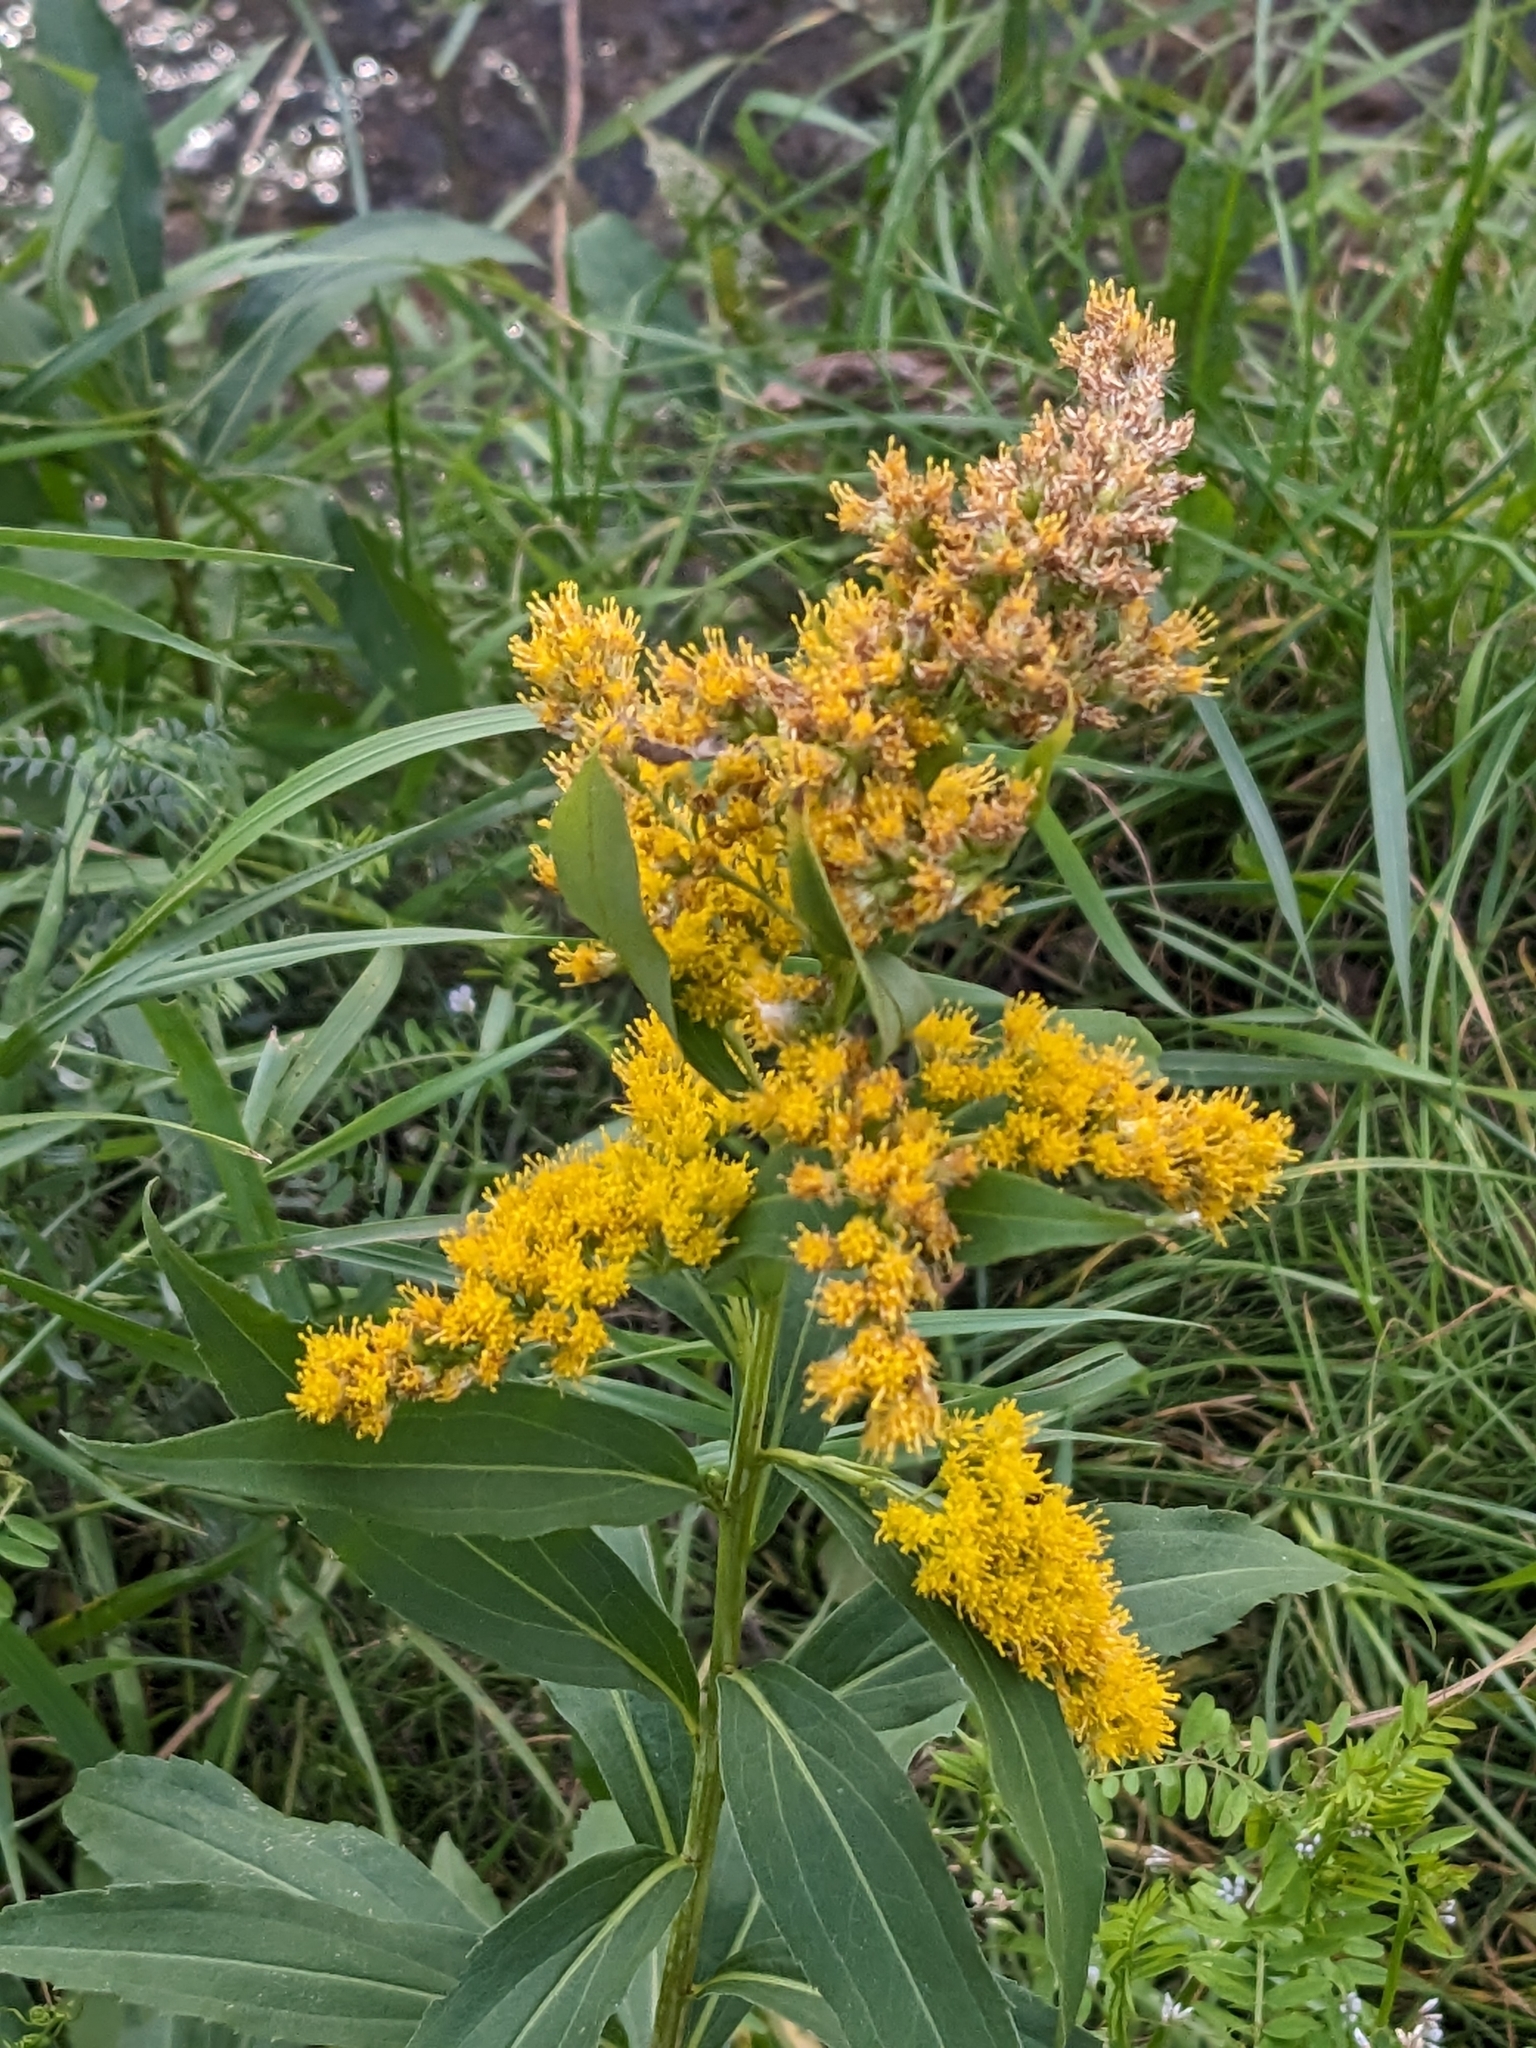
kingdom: Plantae
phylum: Tracheophyta
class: Magnoliopsida
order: Asterales
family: Asteraceae
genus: Solidago
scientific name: Solidago gigantea
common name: Giant goldenrod
